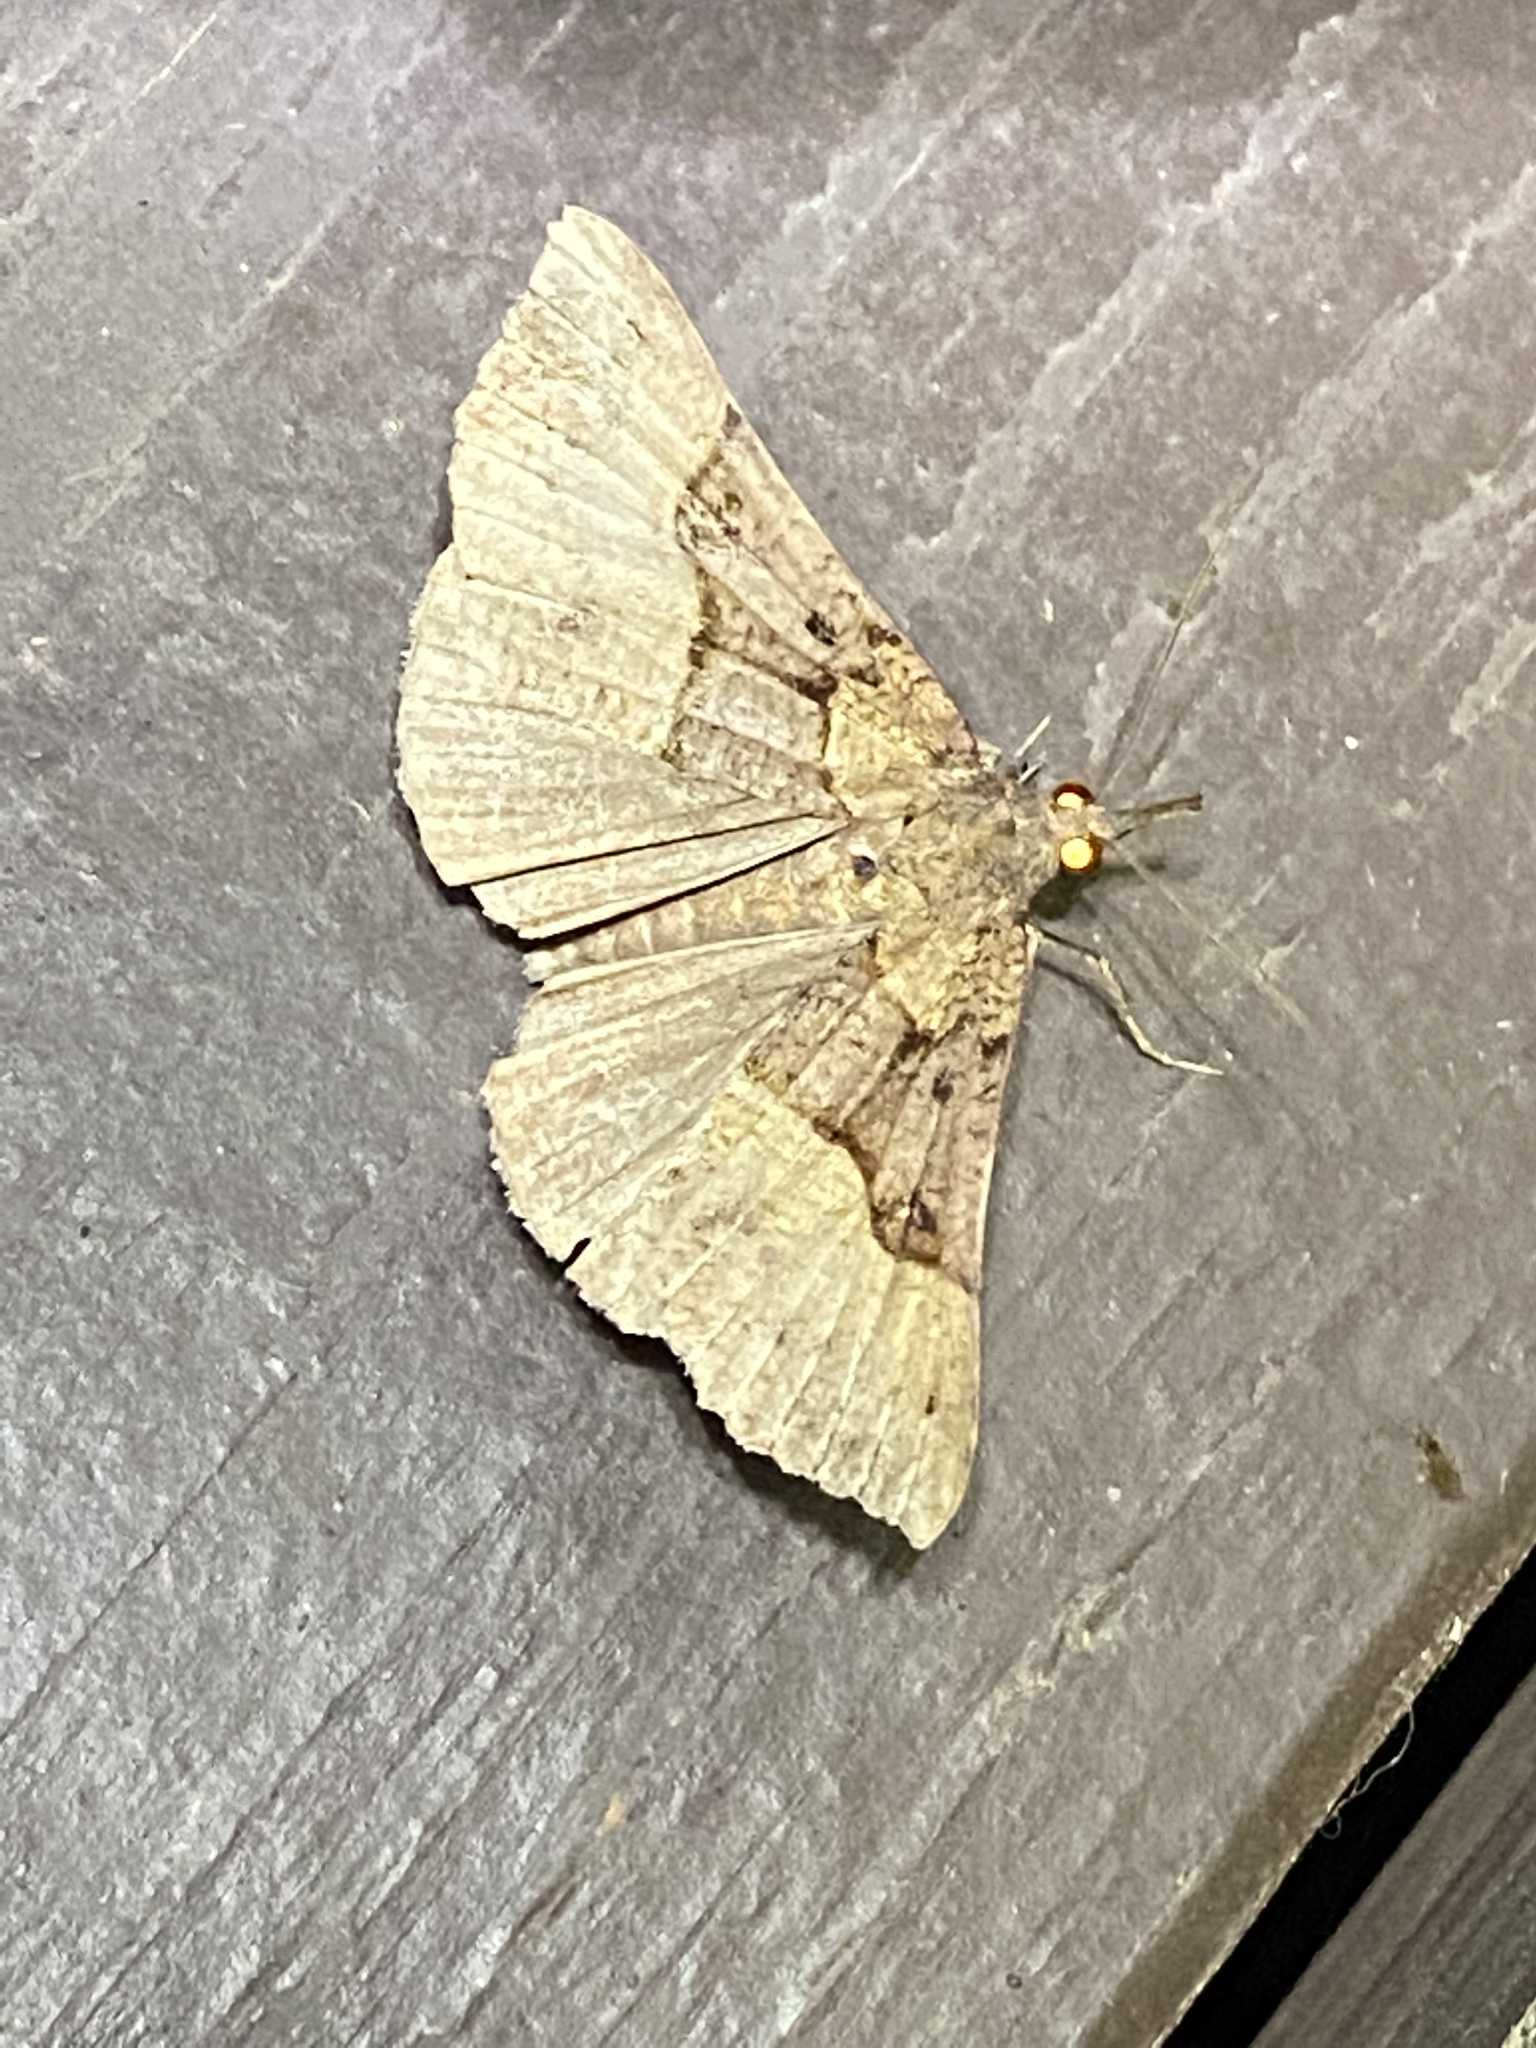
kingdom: Animalia
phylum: Arthropoda
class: Insecta
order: Lepidoptera
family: Erebidae
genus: Hypena
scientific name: Hypena edictalis
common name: Large snout
